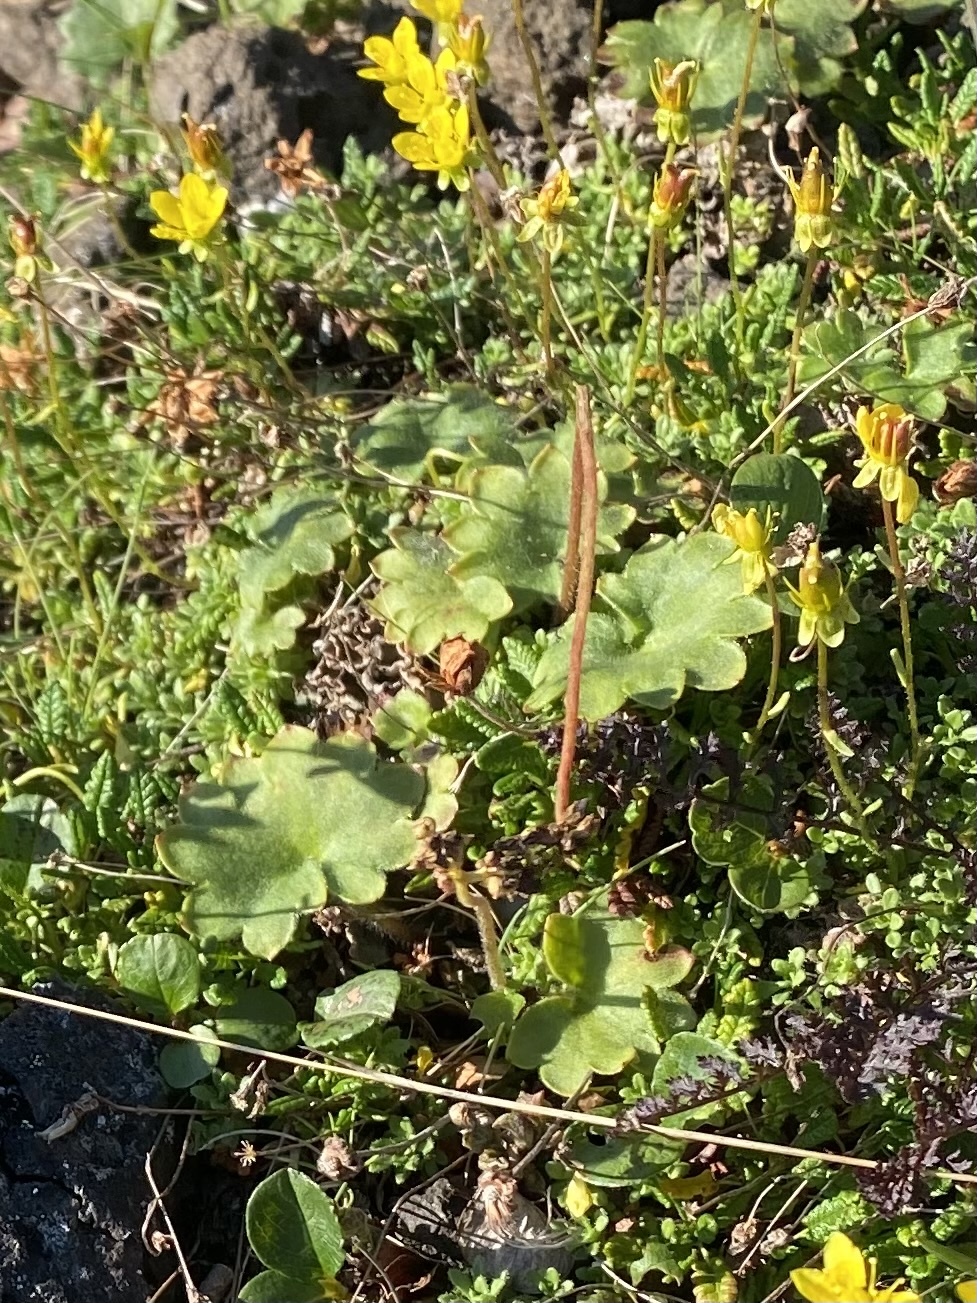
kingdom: Plantae
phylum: Tracheophyta
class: Magnoliopsida
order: Saxifragales
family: Saxifragaceae
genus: Micranthes
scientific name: Micranthes nelsoniana
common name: Nelson's saxifrage
